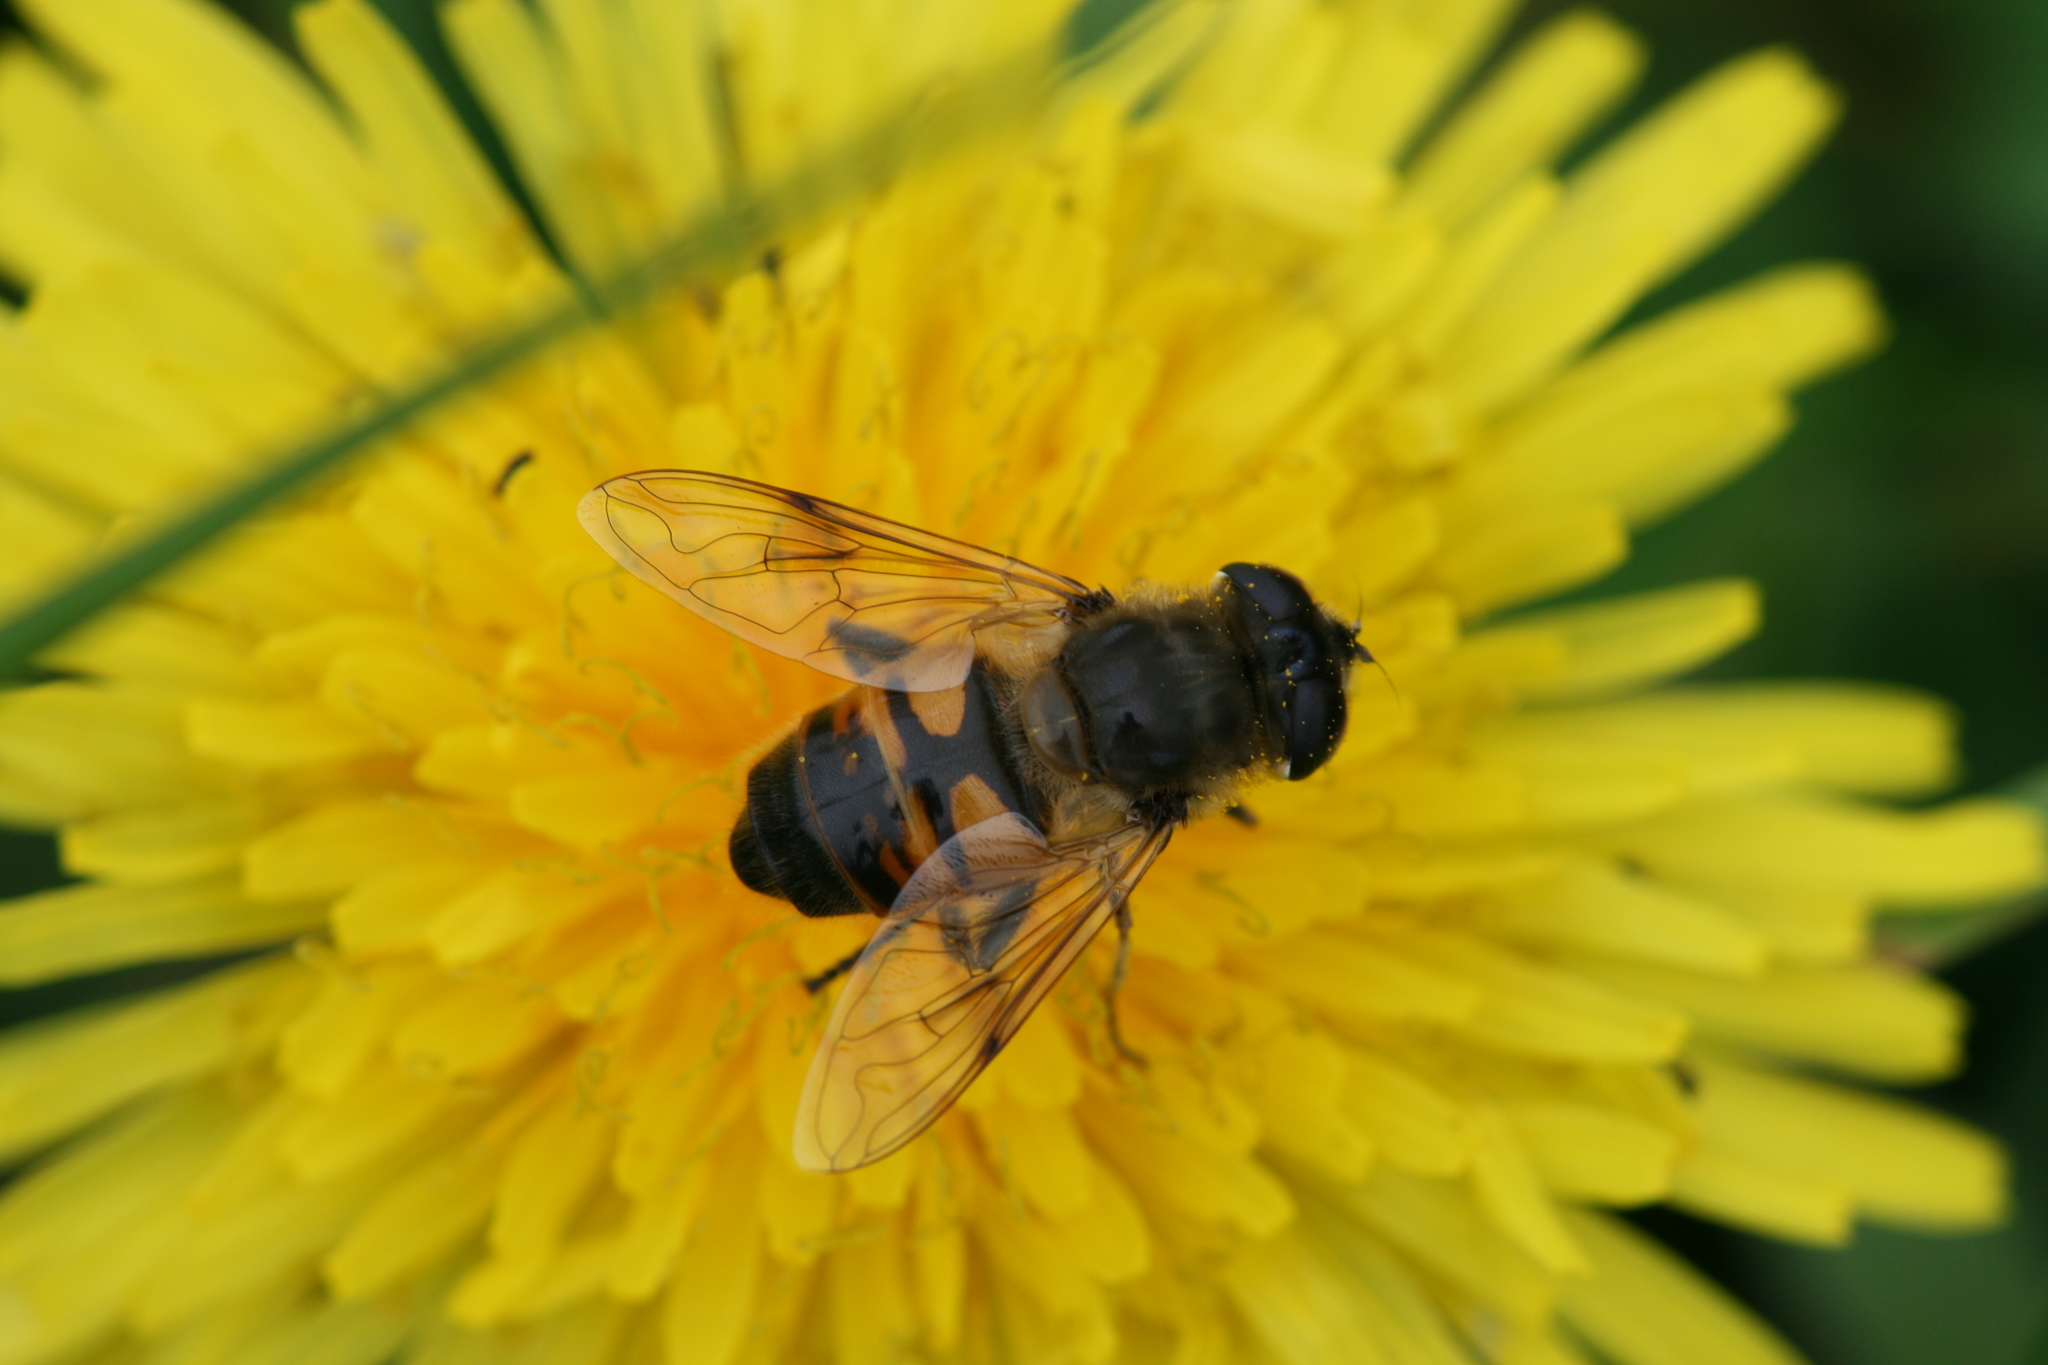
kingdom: Animalia
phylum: Arthropoda
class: Insecta
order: Diptera
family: Syrphidae
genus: Eristalis
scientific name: Eristalis tenax
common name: Drone fly
